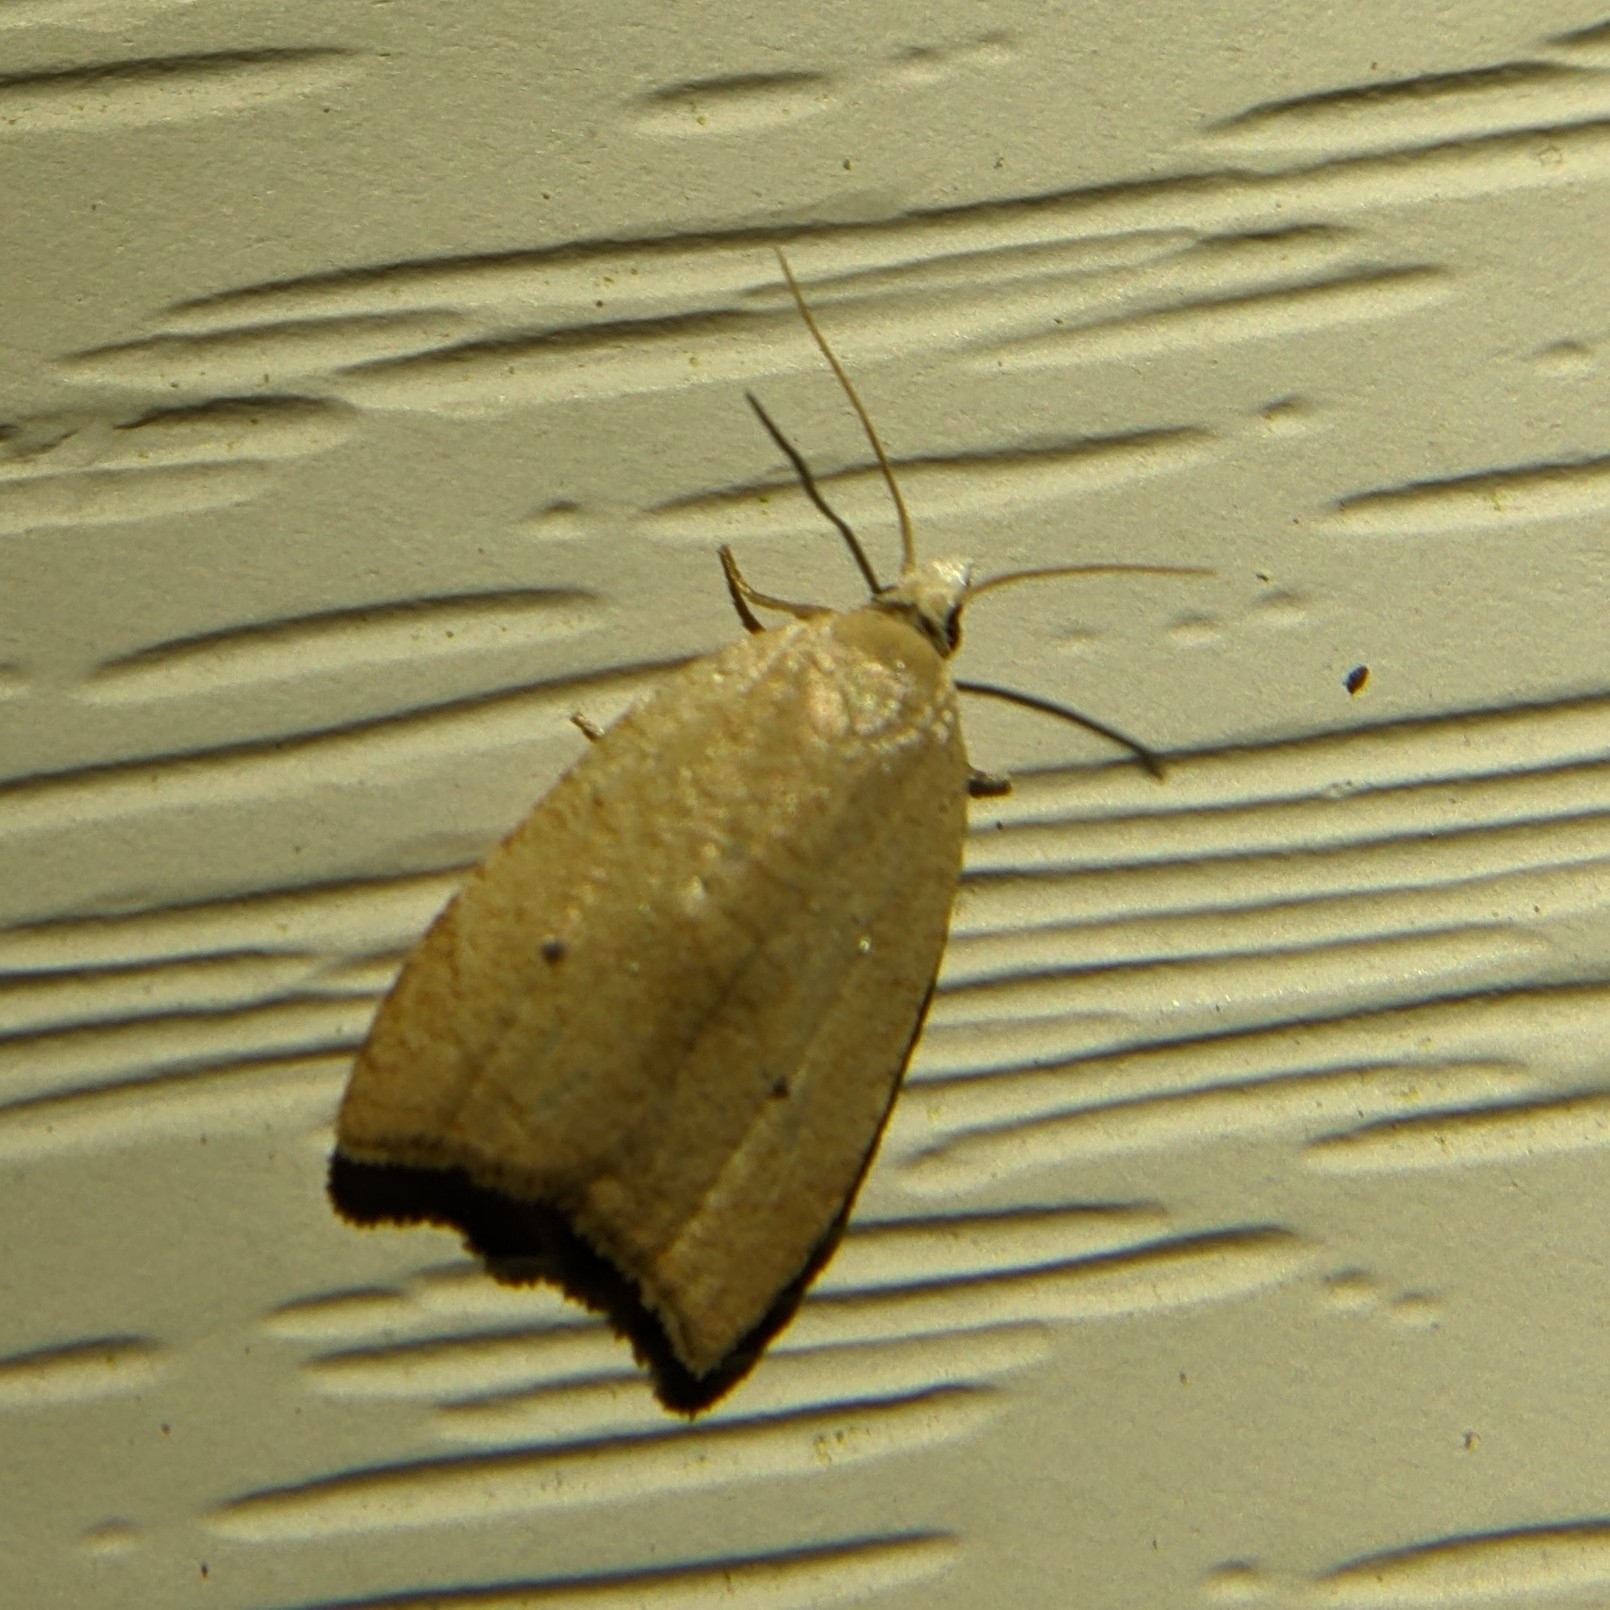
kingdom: Animalia
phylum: Arthropoda
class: Insecta
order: Lepidoptera
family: Tortricidae
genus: Coelostathma
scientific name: Coelostathma discopunctana
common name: Batman moth
